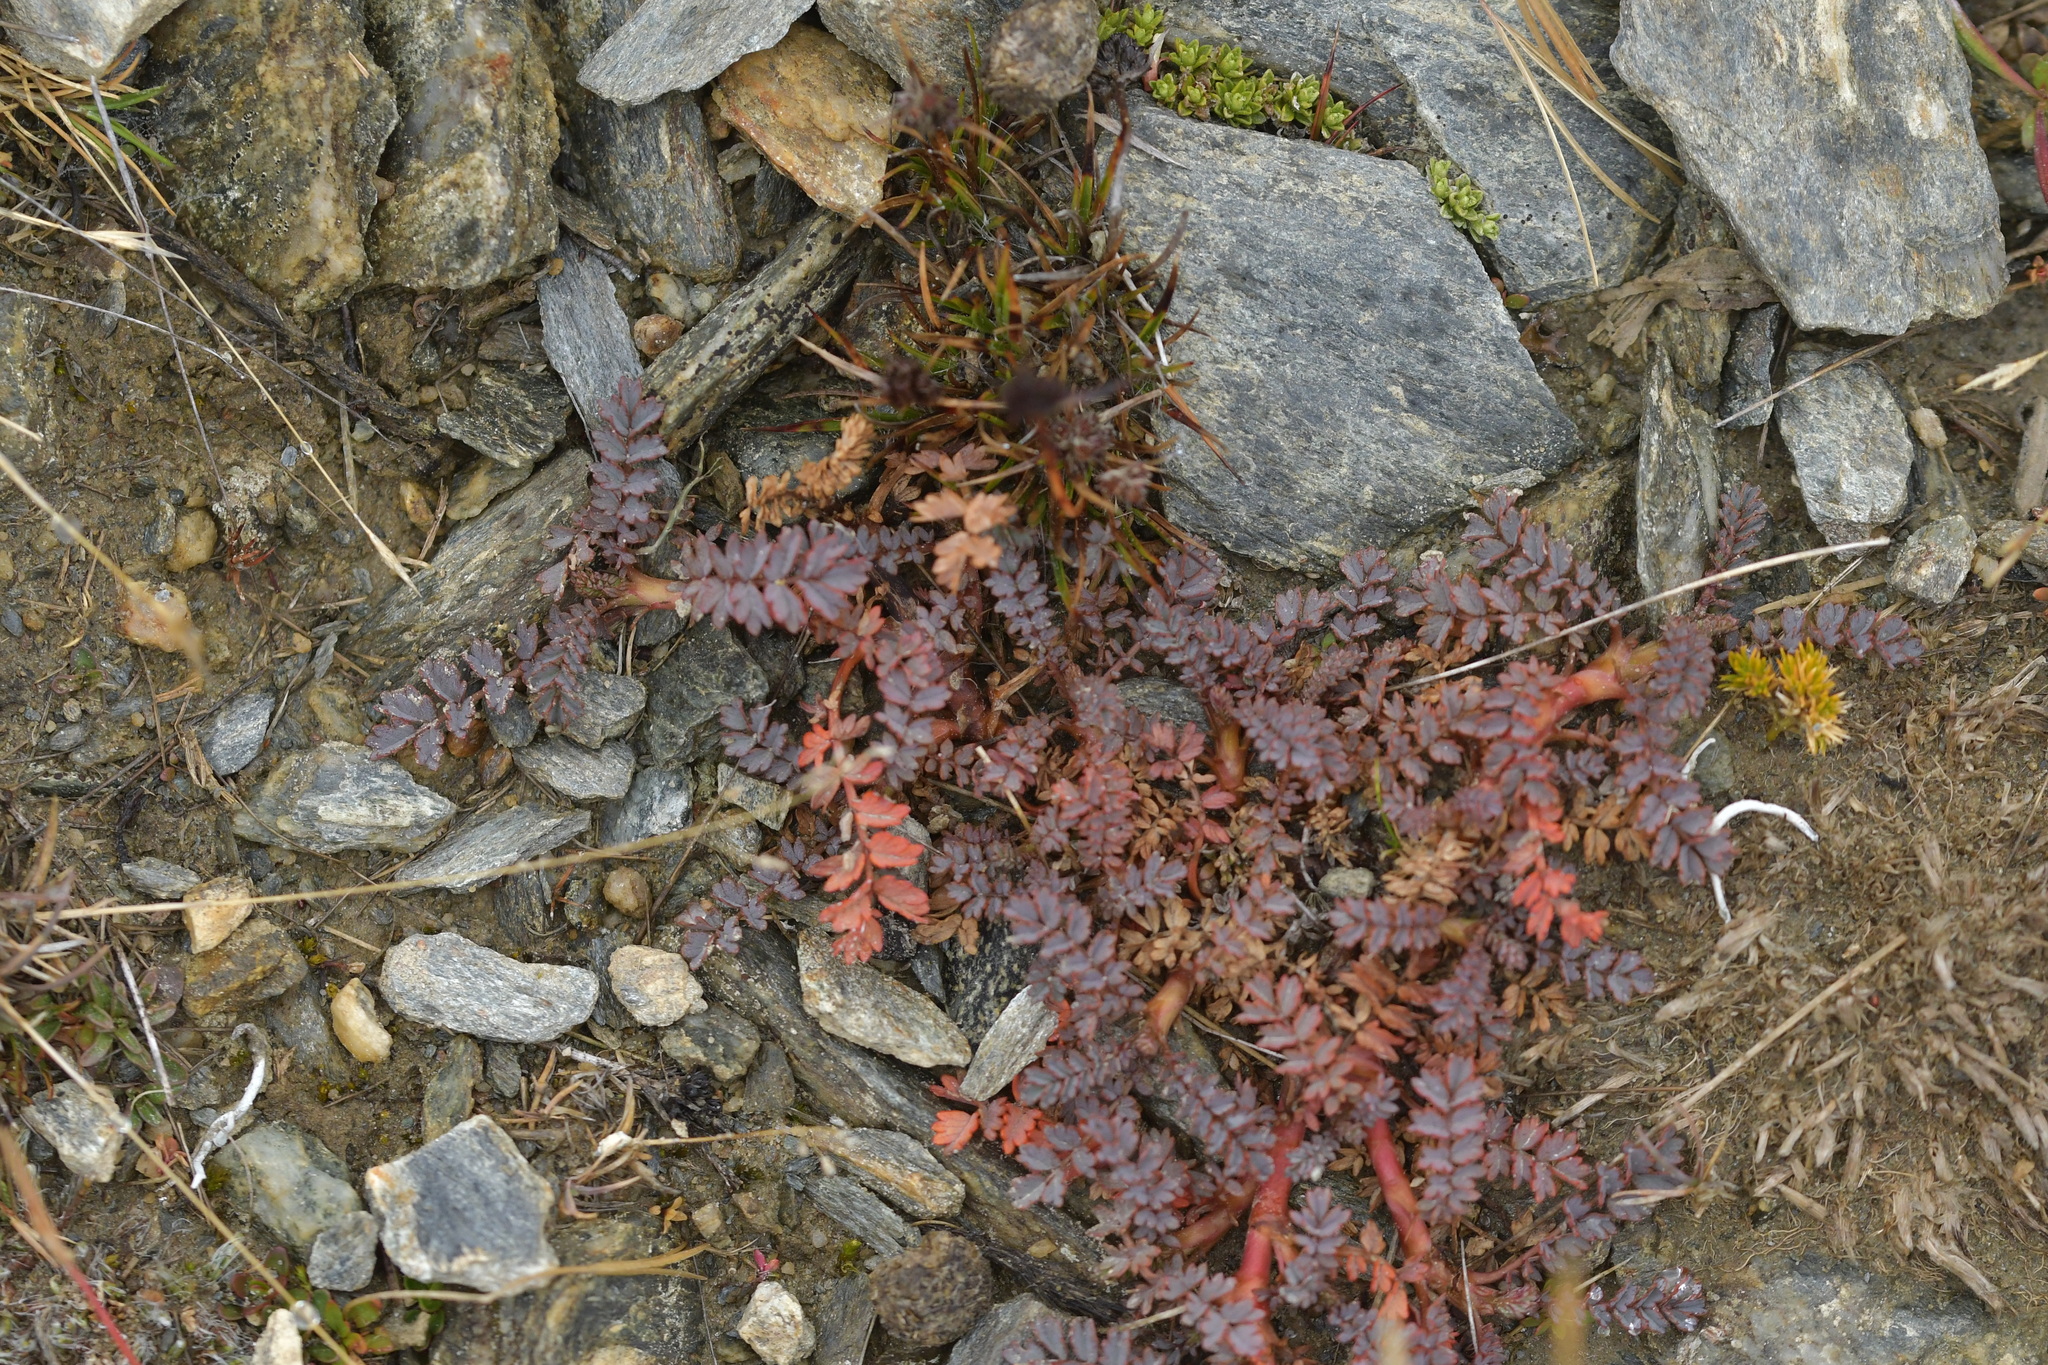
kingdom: Plantae
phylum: Tracheophyta
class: Magnoliopsida
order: Rosales
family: Rosaceae
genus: Acaena
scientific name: Acaena saccaticupula
